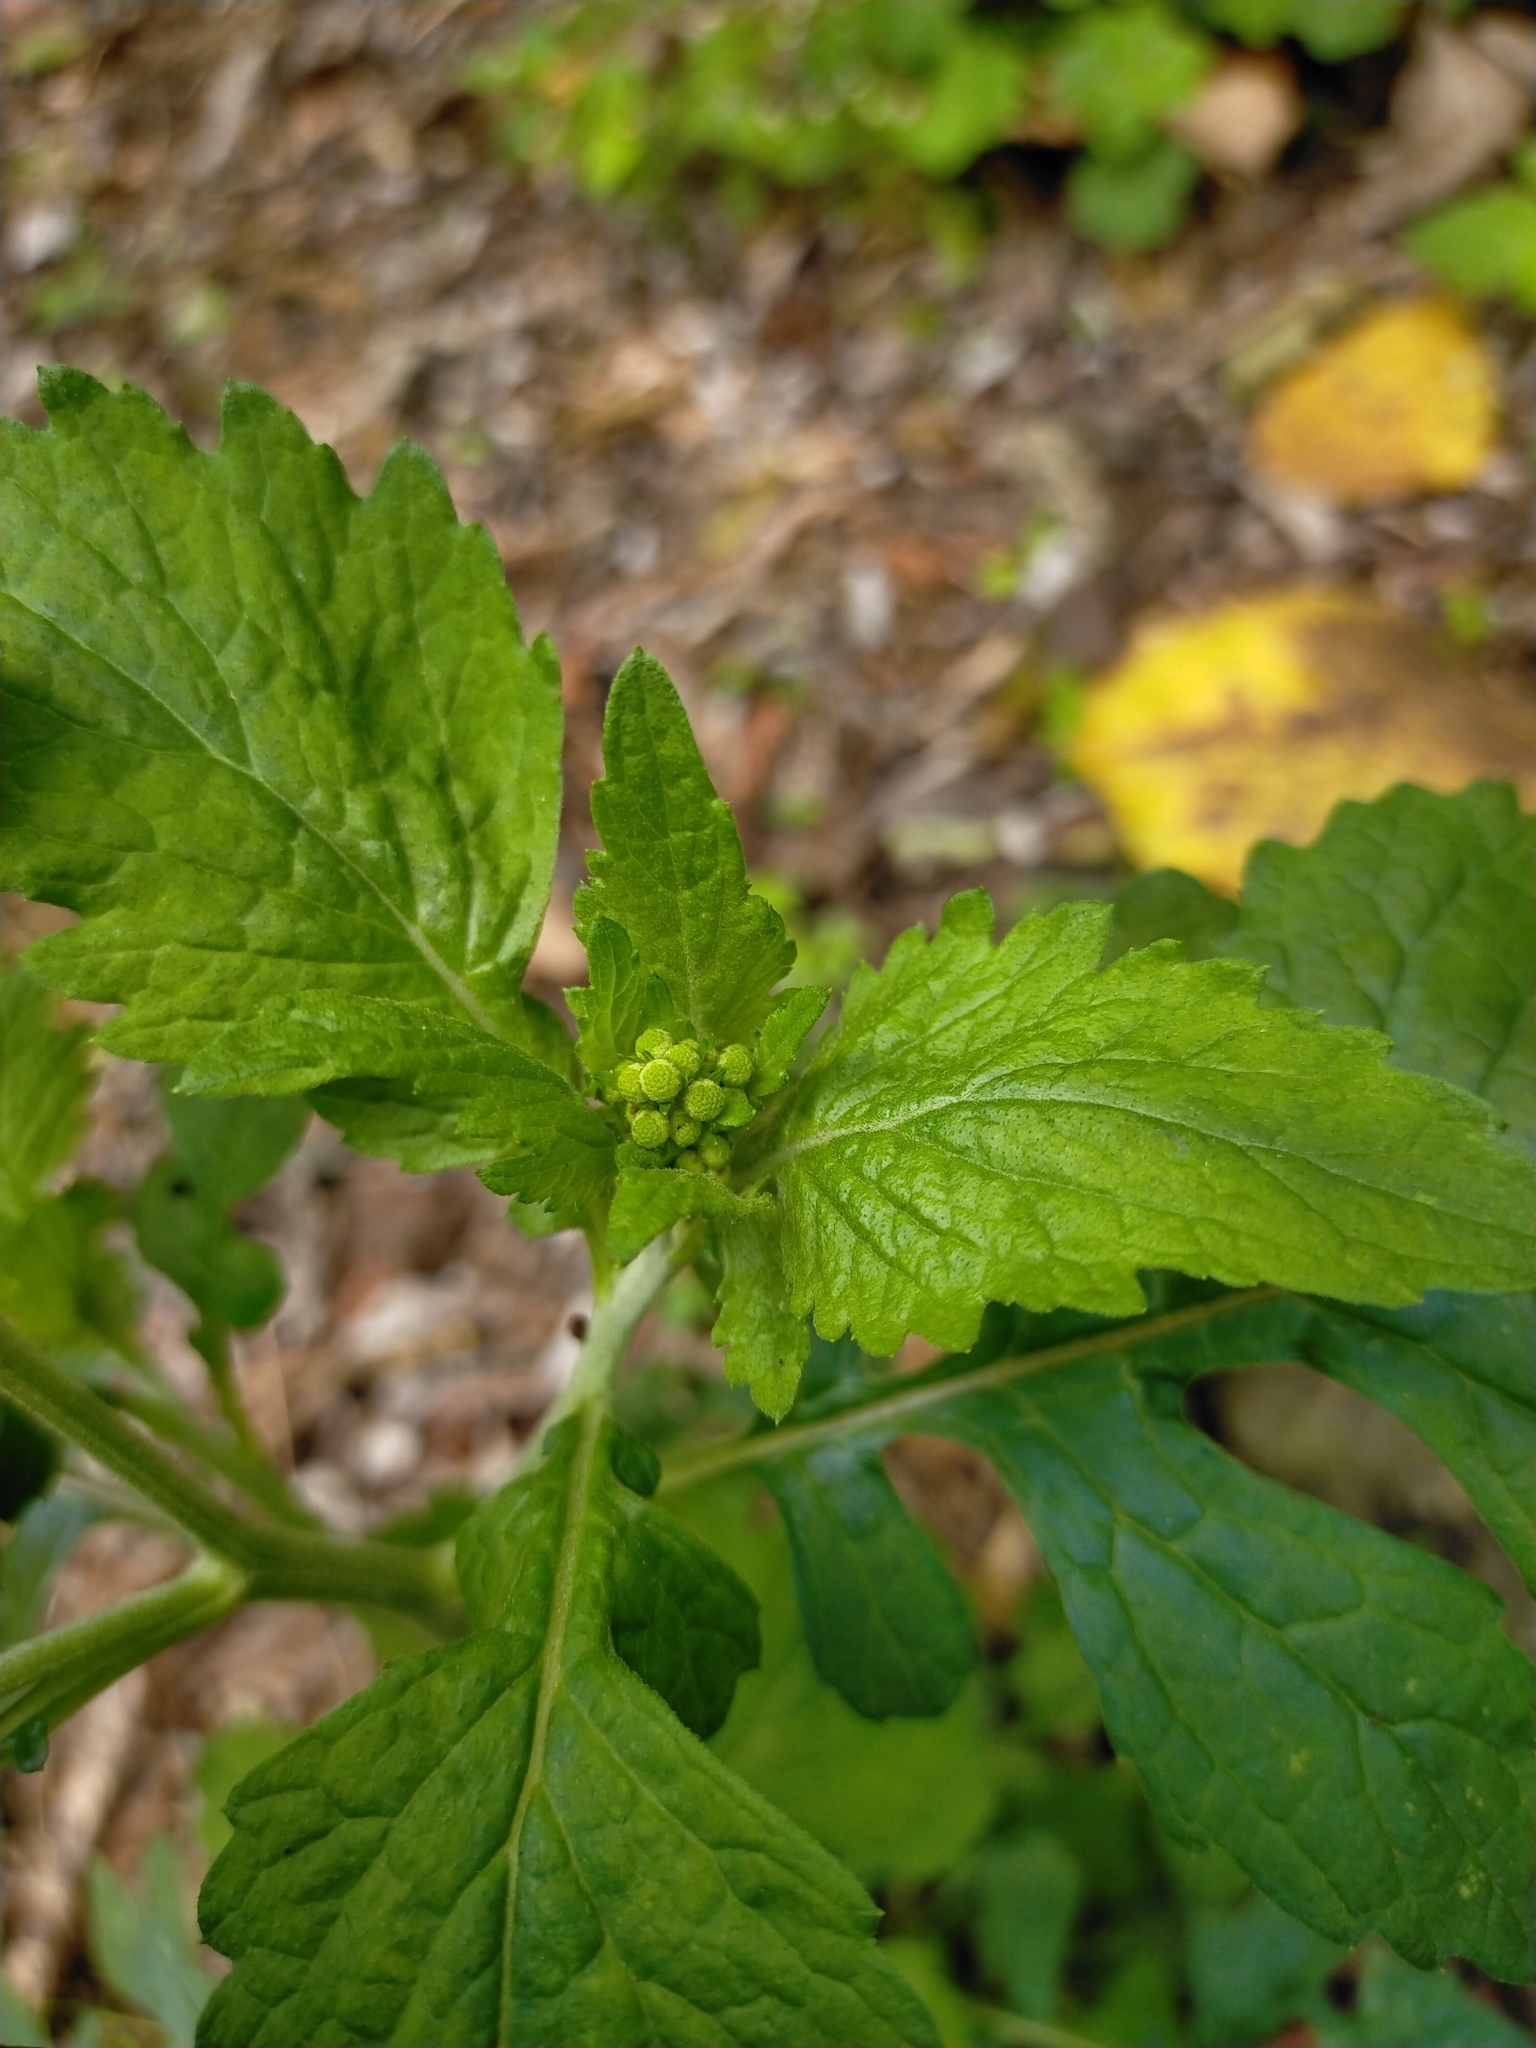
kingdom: Plantae
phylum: Tracheophyta
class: Magnoliopsida
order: Asterales
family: Asteraceae
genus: Dichrocephala
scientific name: Dichrocephala integrifolia
